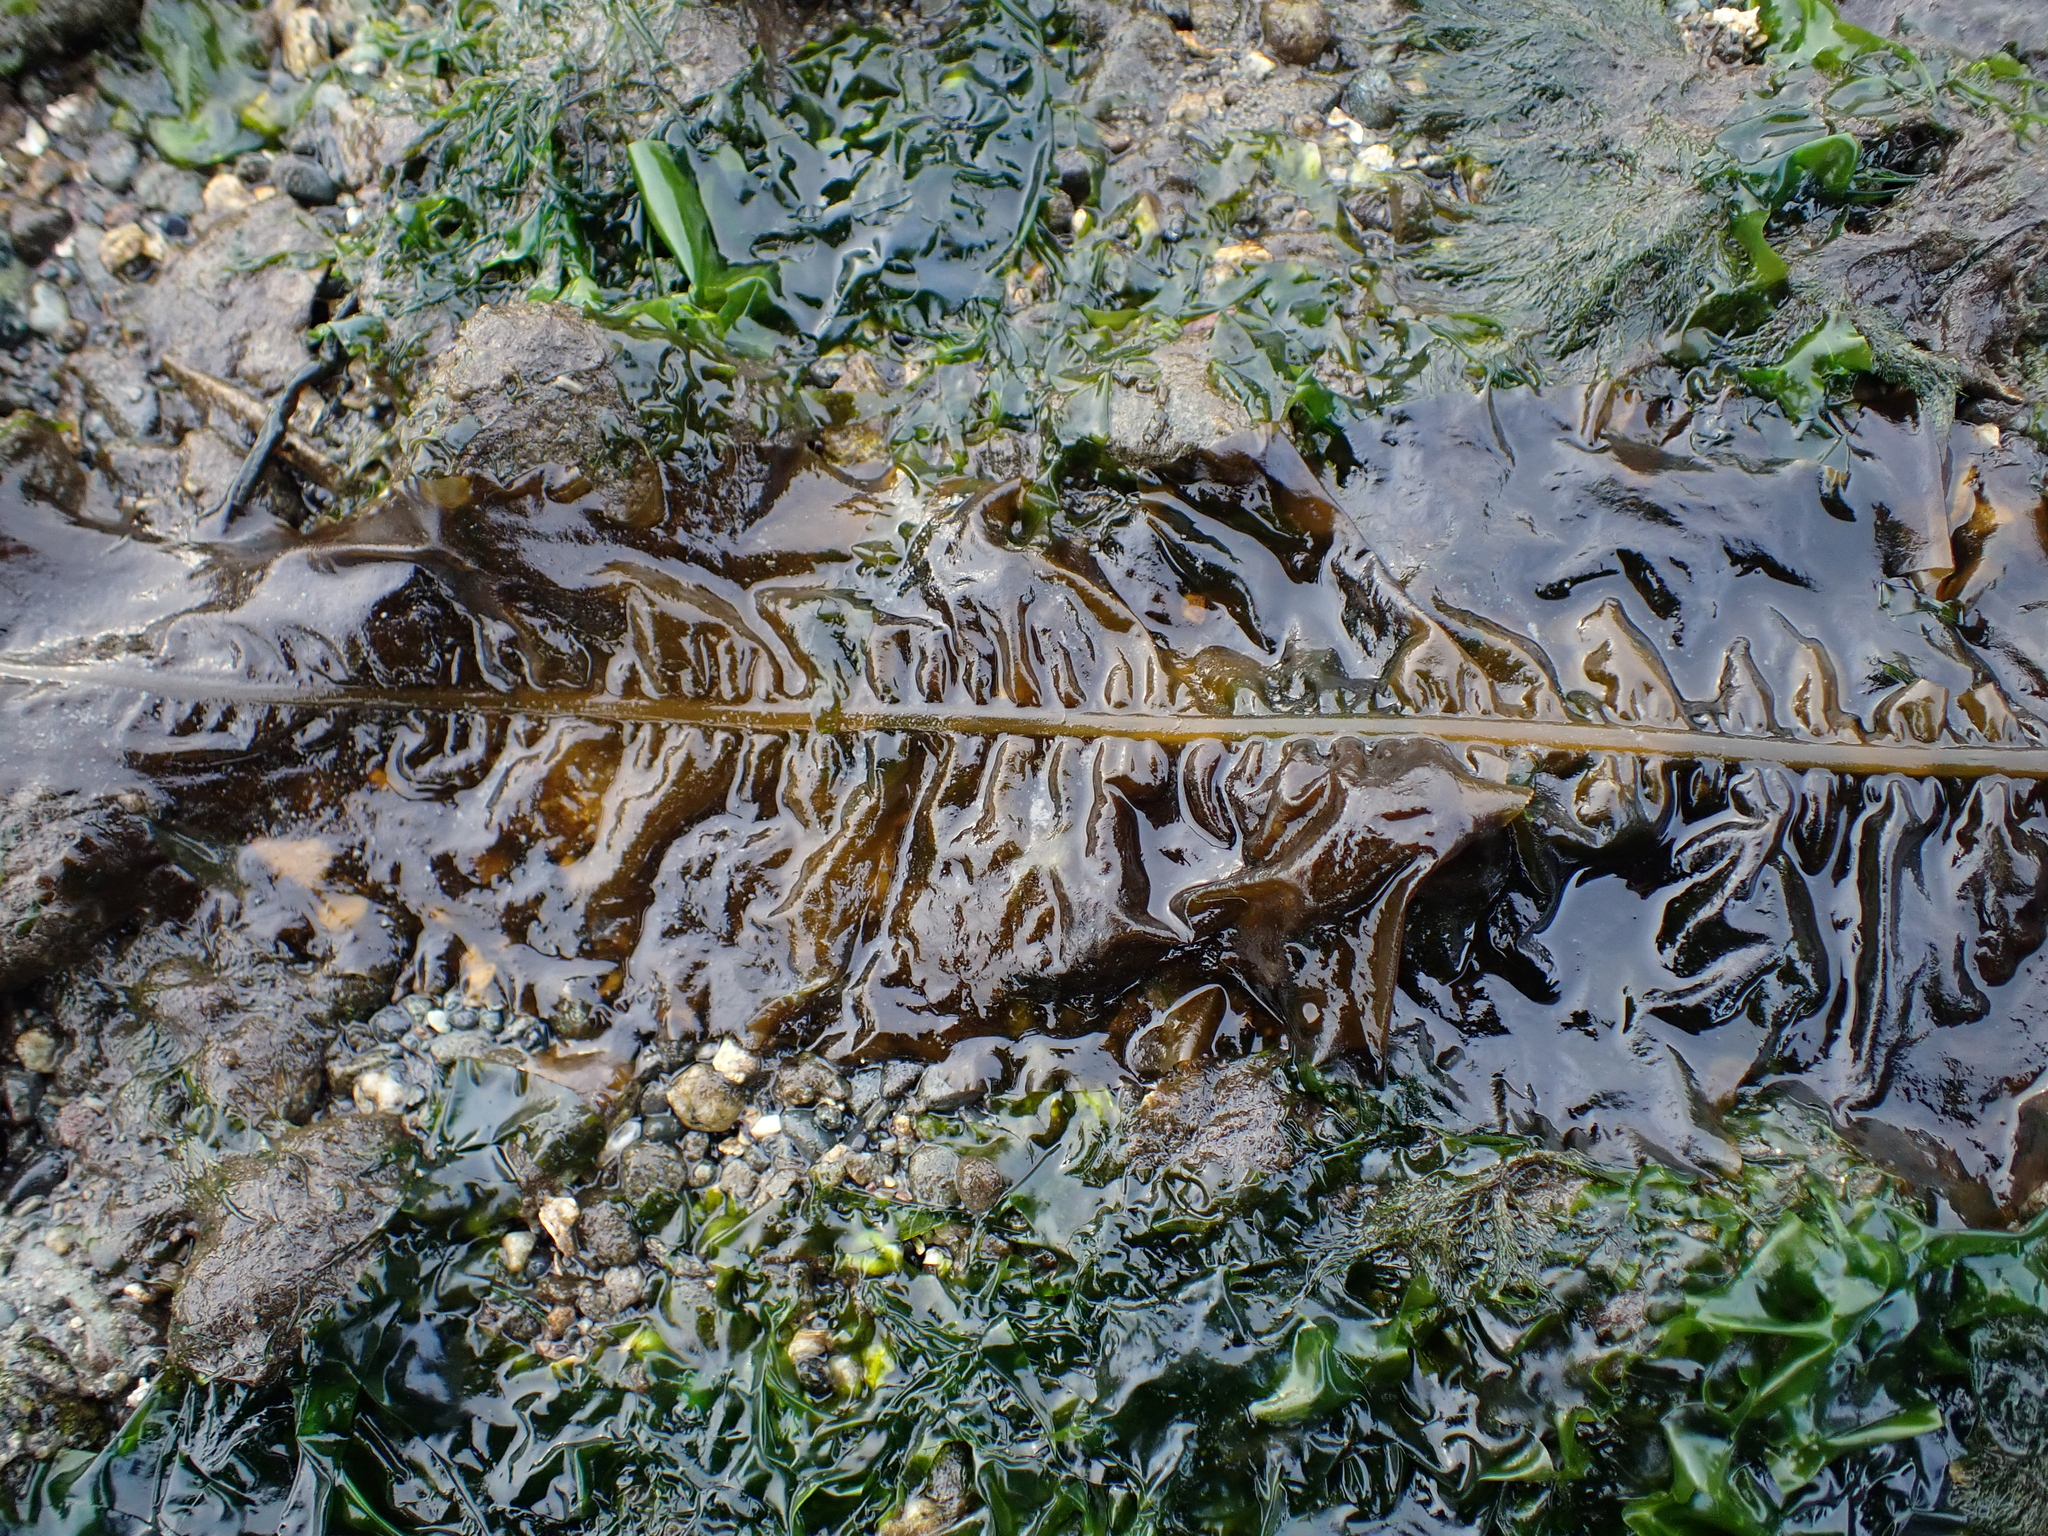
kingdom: Chromista
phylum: Ochrophyta
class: Phaeophyceae
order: Laminariales
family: Alariaceae
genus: Alaria
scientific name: Alaria marginata
